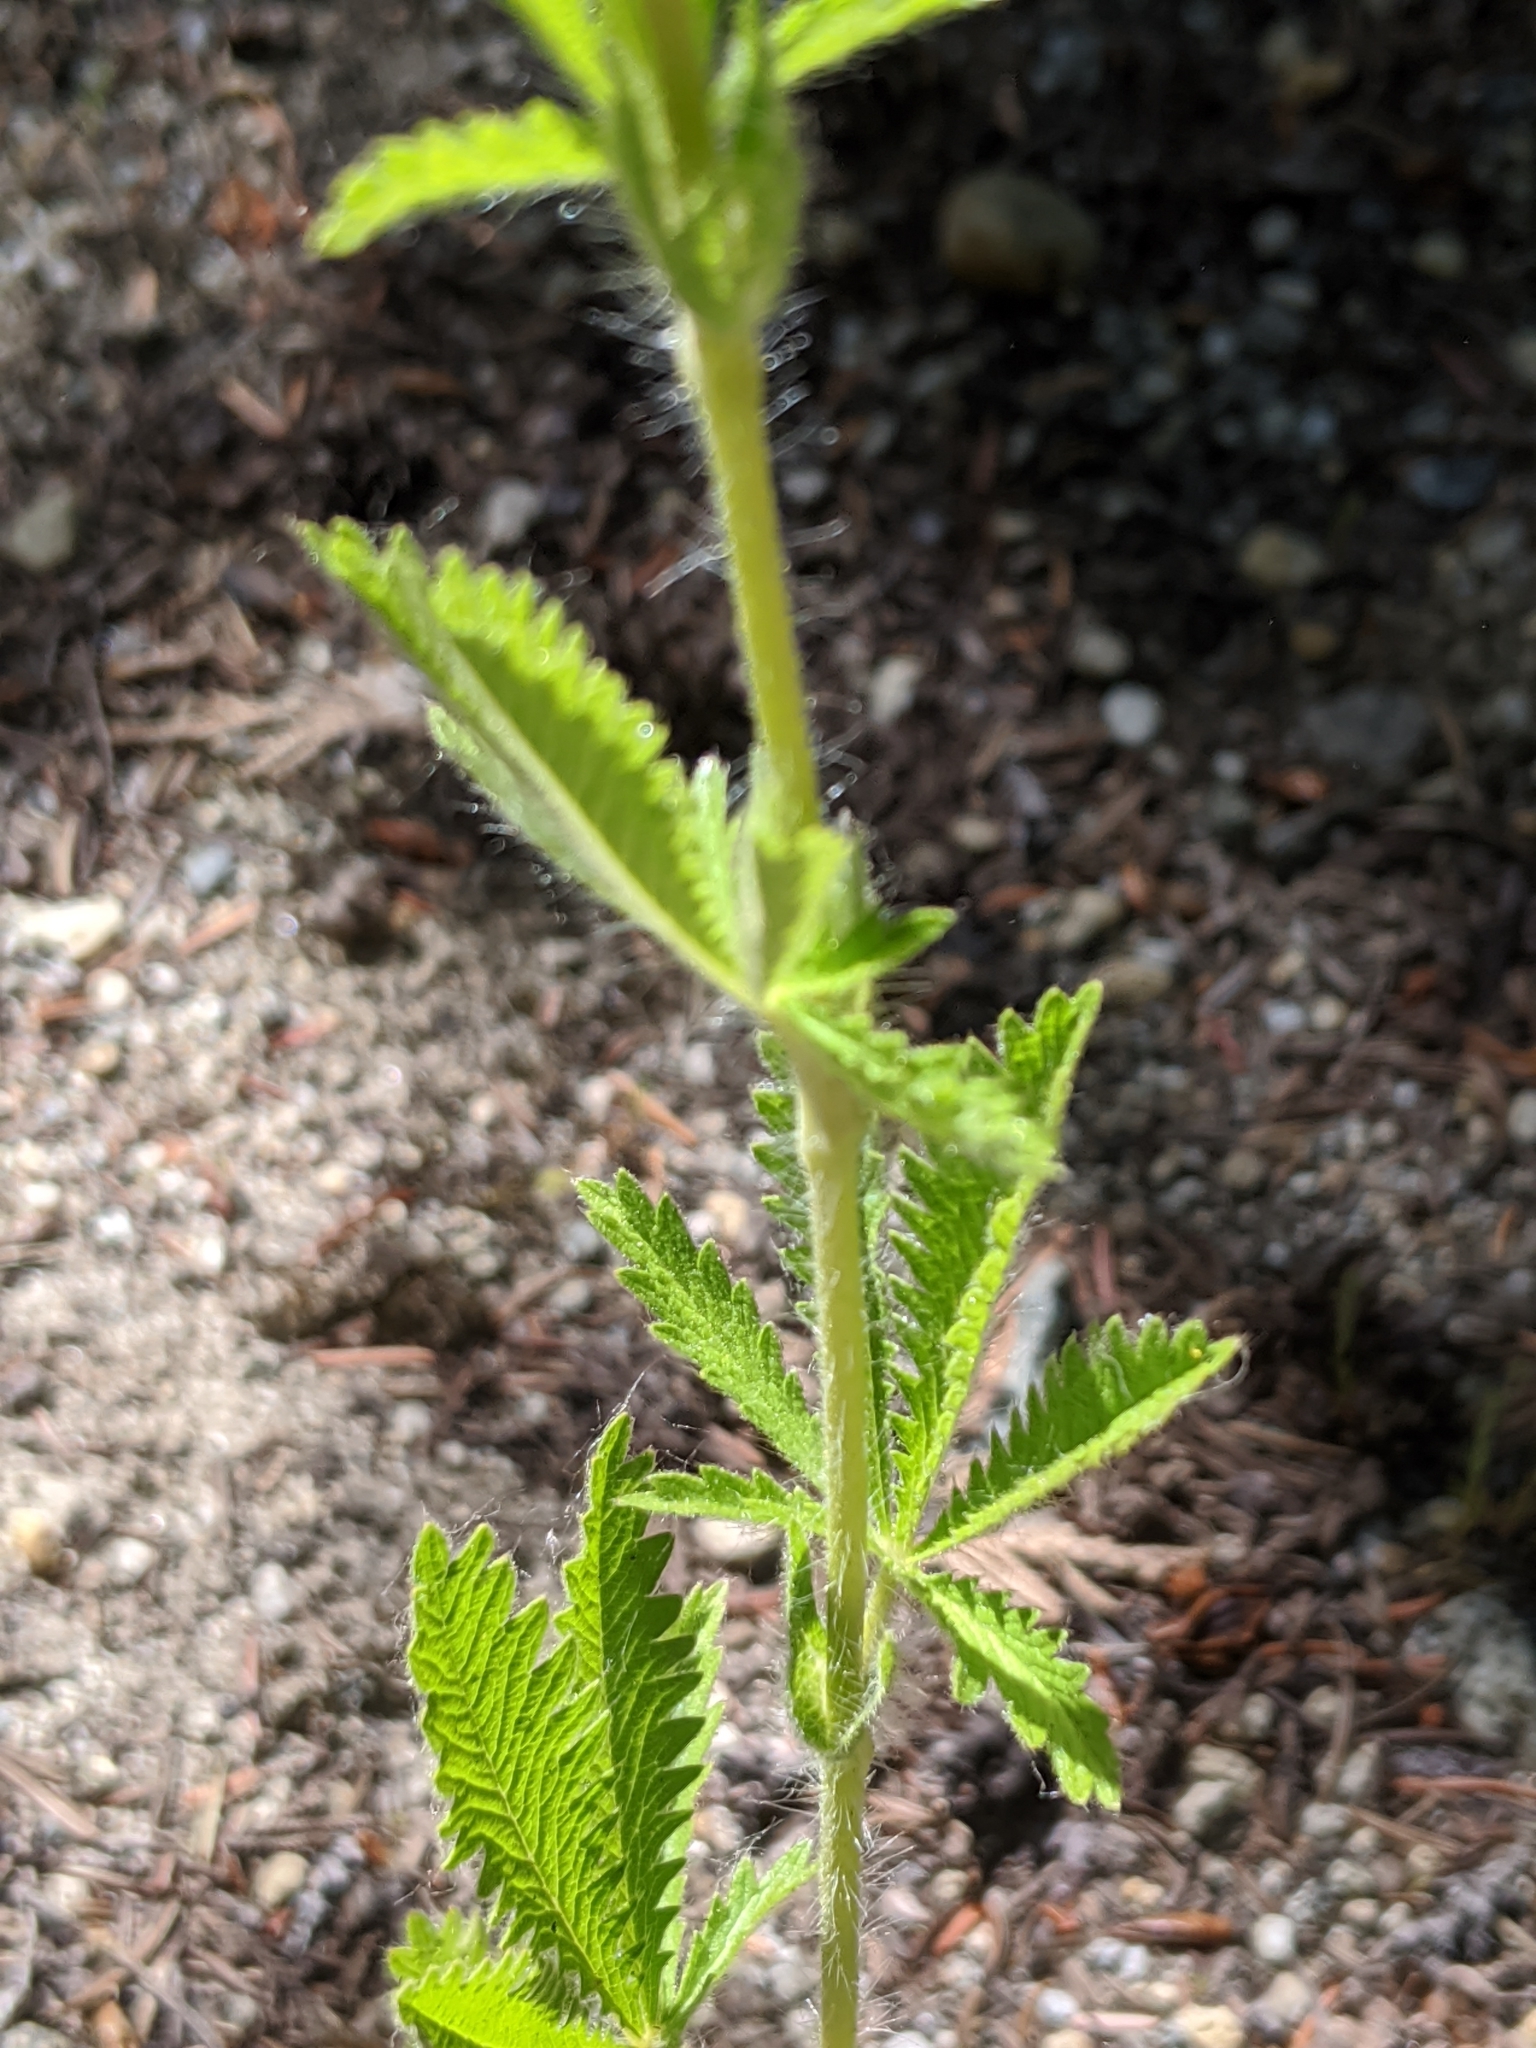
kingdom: Plantae
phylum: Tracheophyta
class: Magnoliopsida
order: Rosales
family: Rosaceae
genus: Potentilla
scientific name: Potentilla recta
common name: Sulphur cinquefoil
